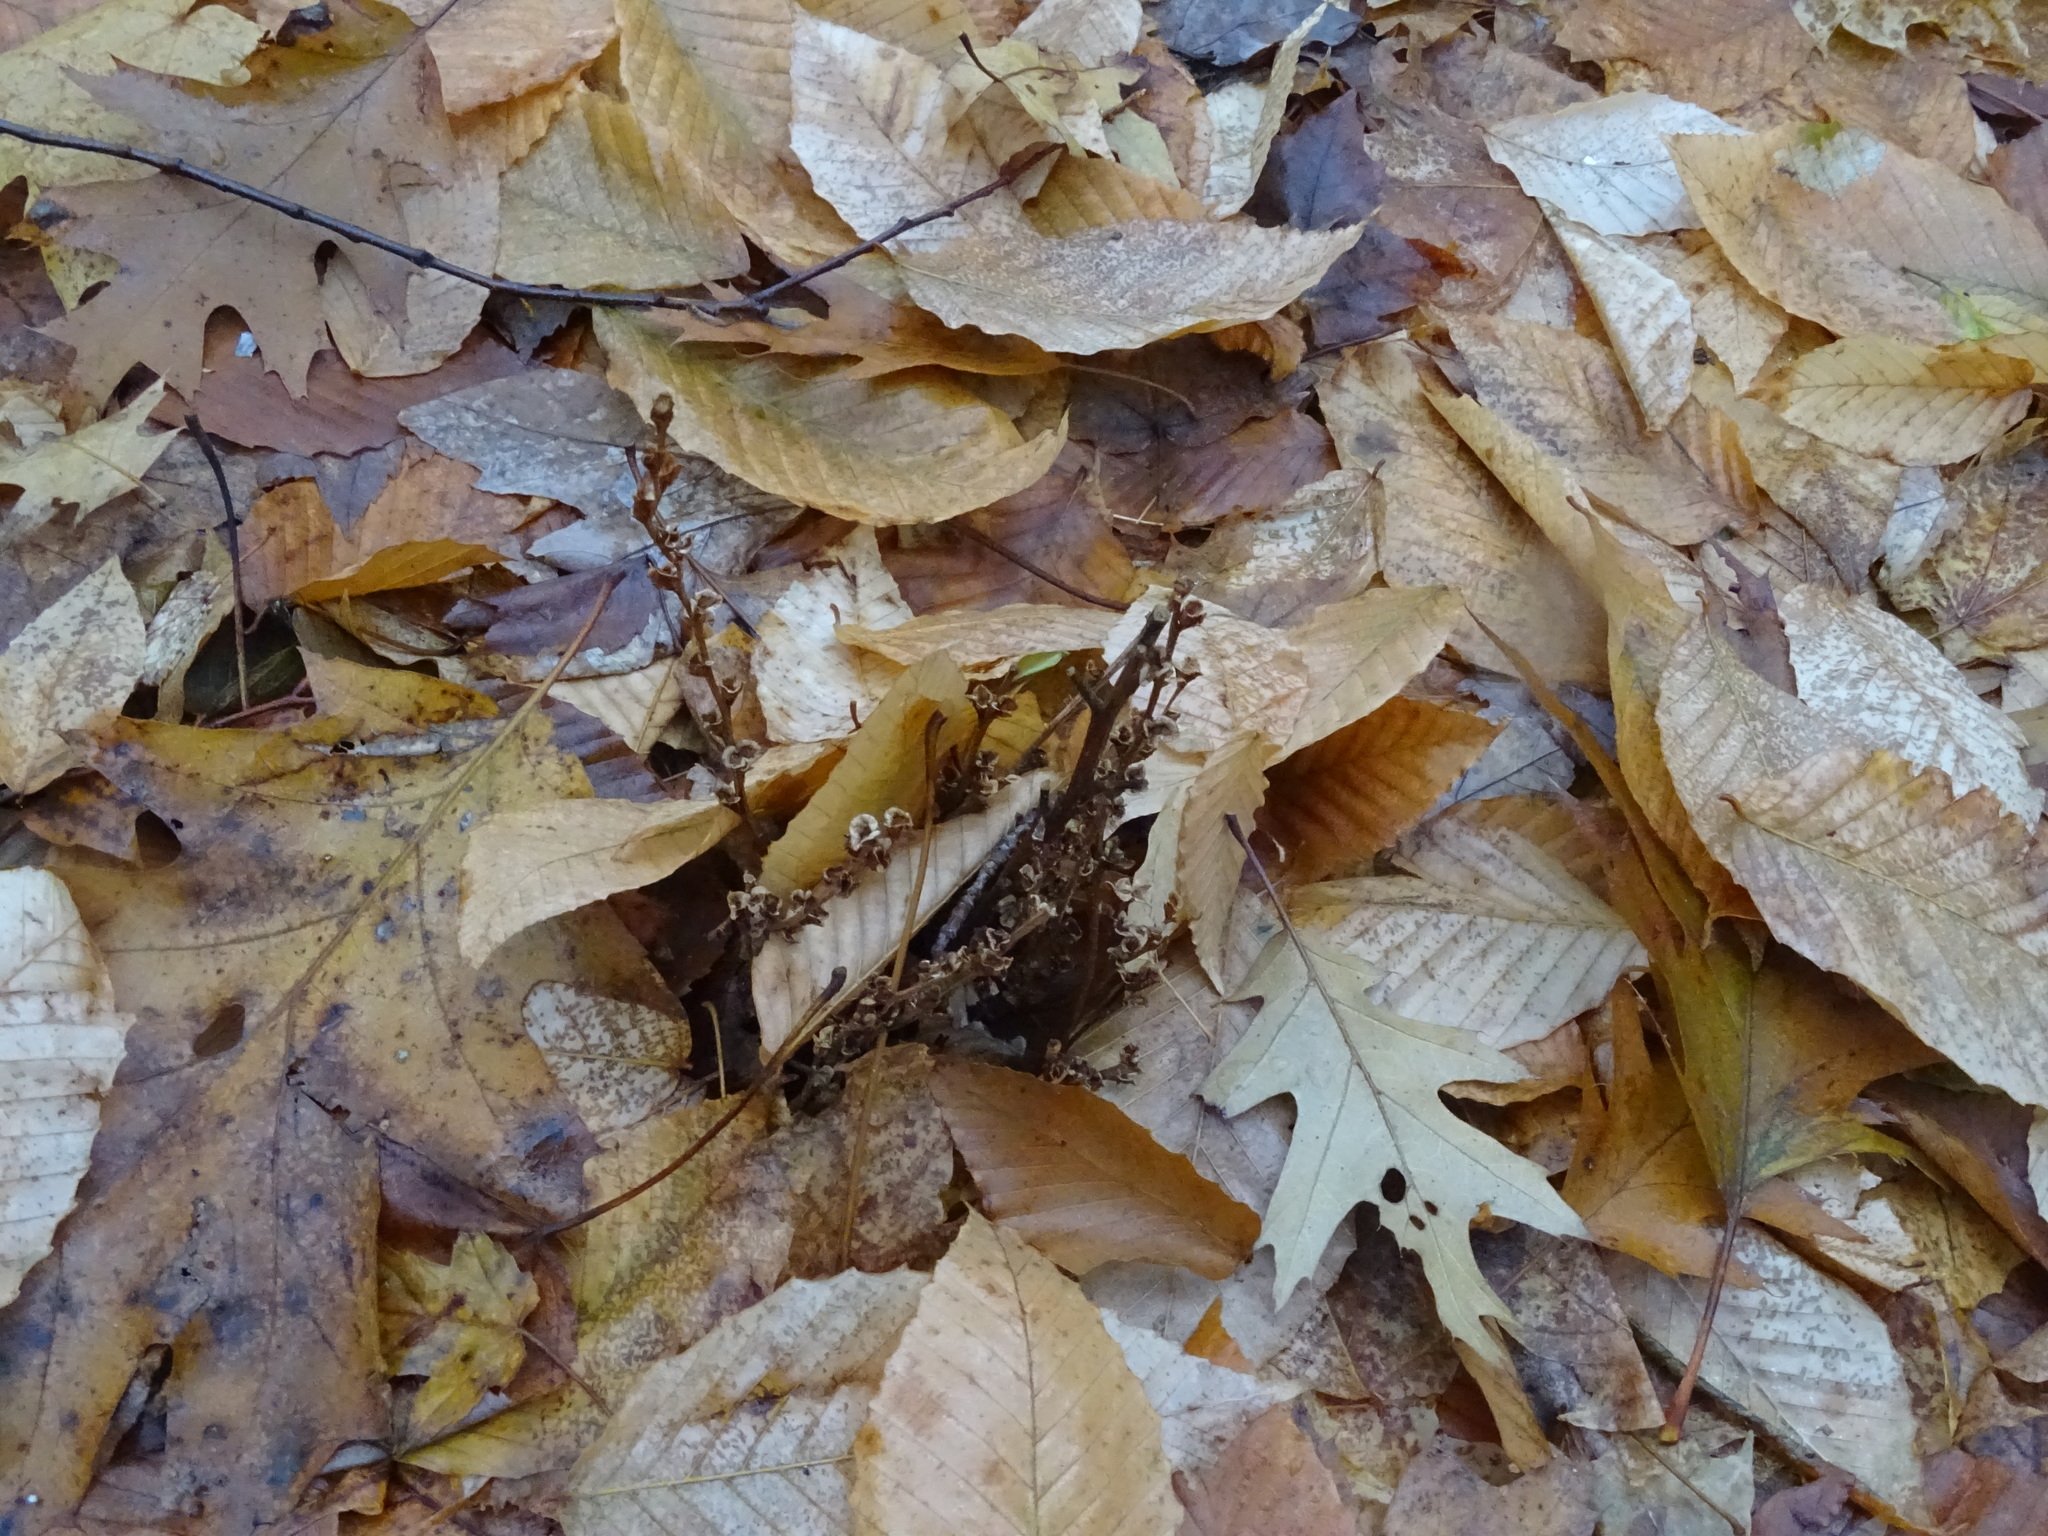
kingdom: Plantae
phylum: Tracheophyta
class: Magnoliopsida
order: Lamiales
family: Orobanchaceae
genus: Epifagus
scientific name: Epifagus virginiana
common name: Beechdrops
